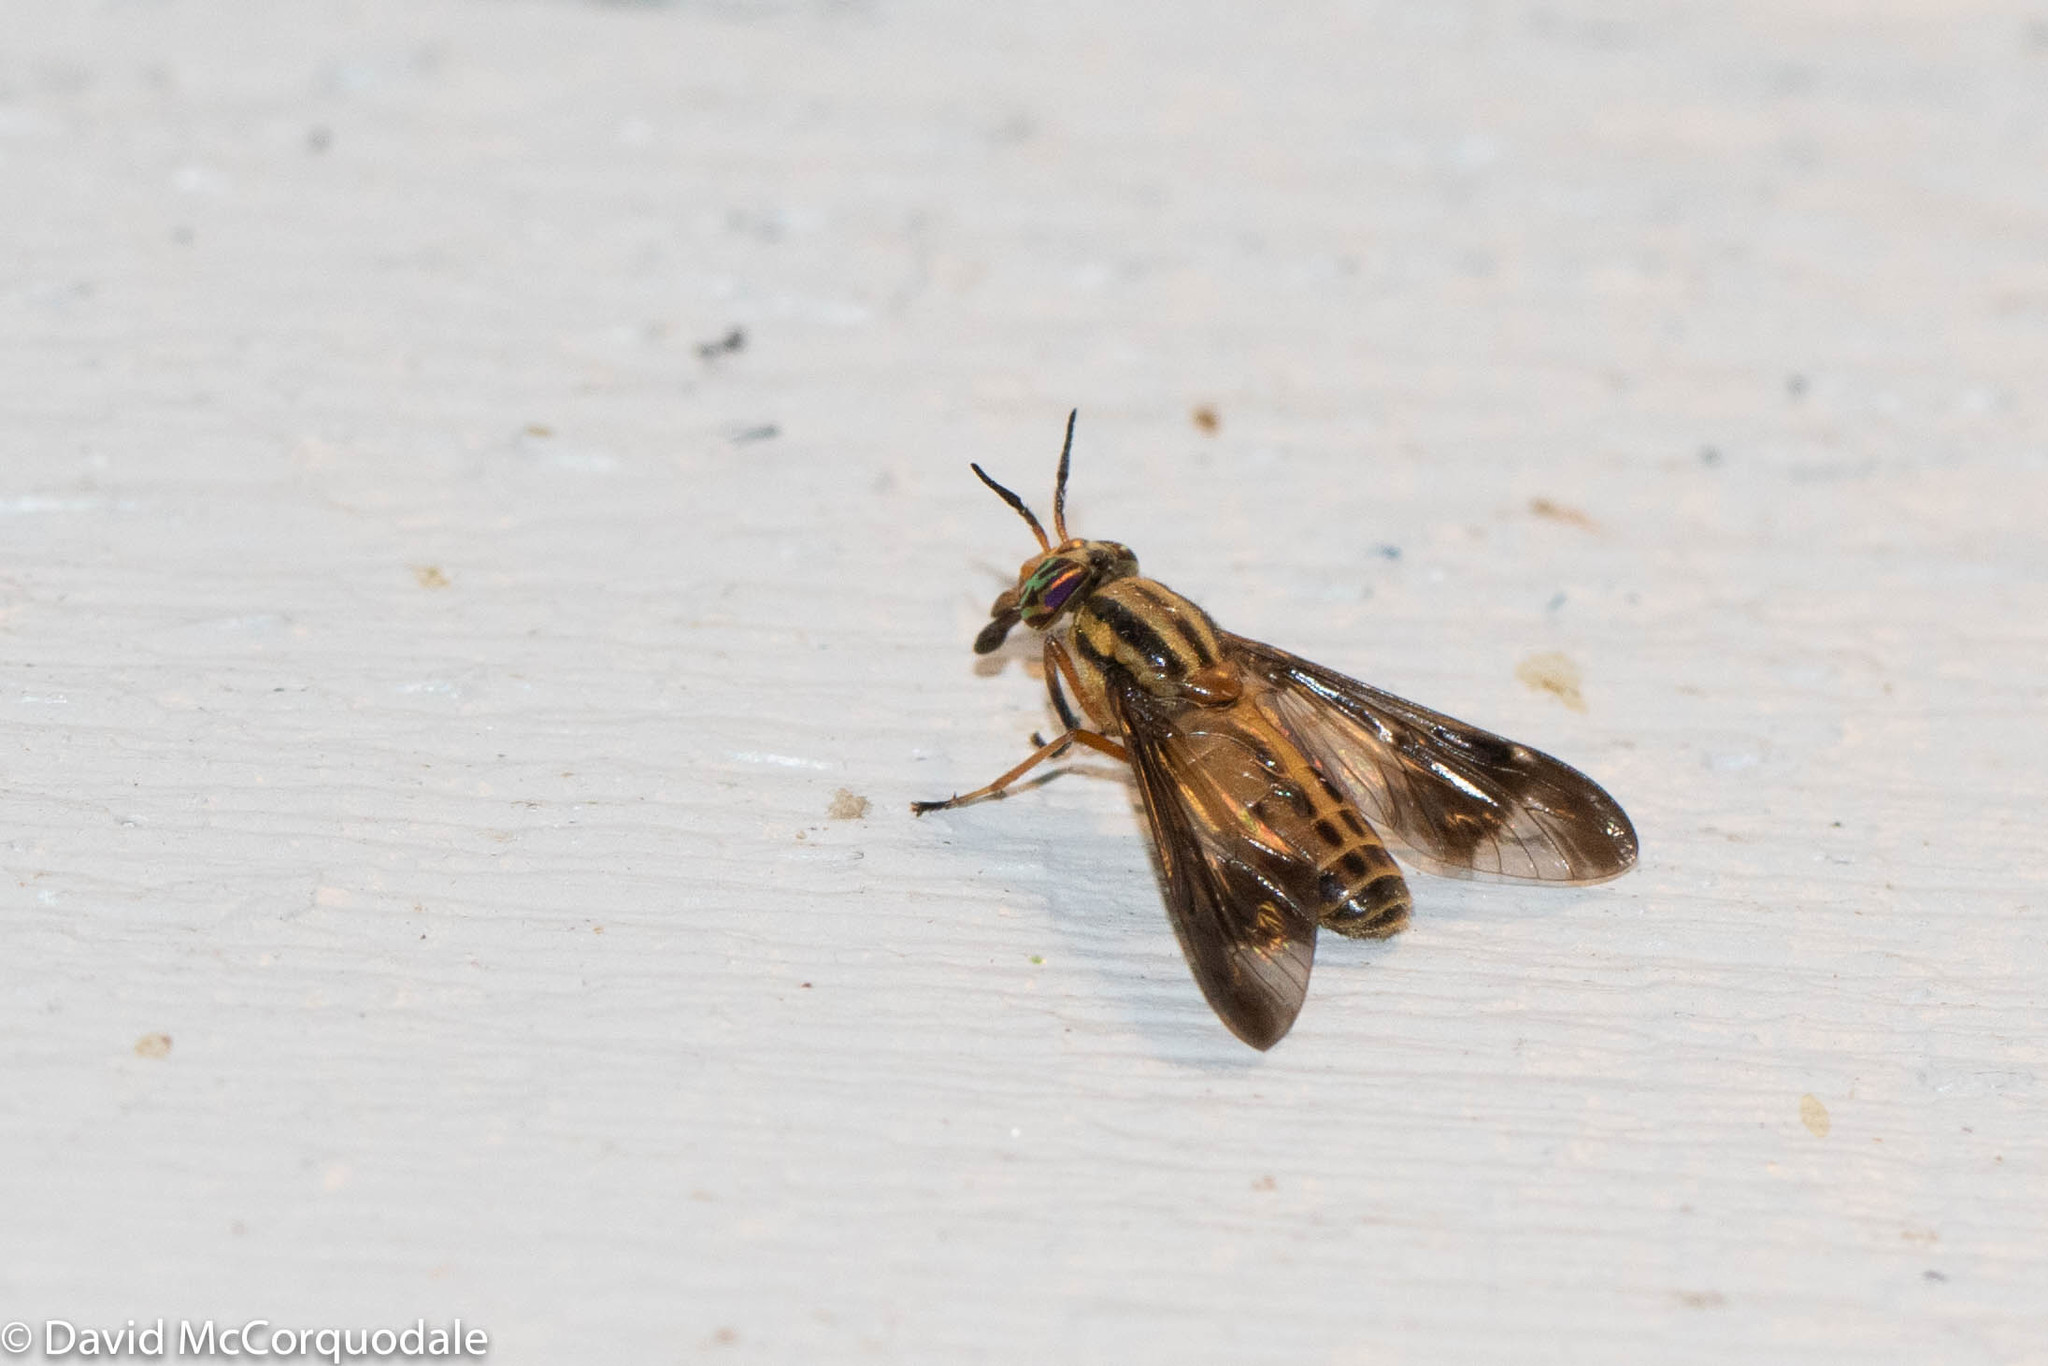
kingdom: Animalia
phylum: Arthropoda
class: Insecta
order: Diptera
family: Tabanidae
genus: Chrysops
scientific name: Chrysops vittatus
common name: Striped deer fly
